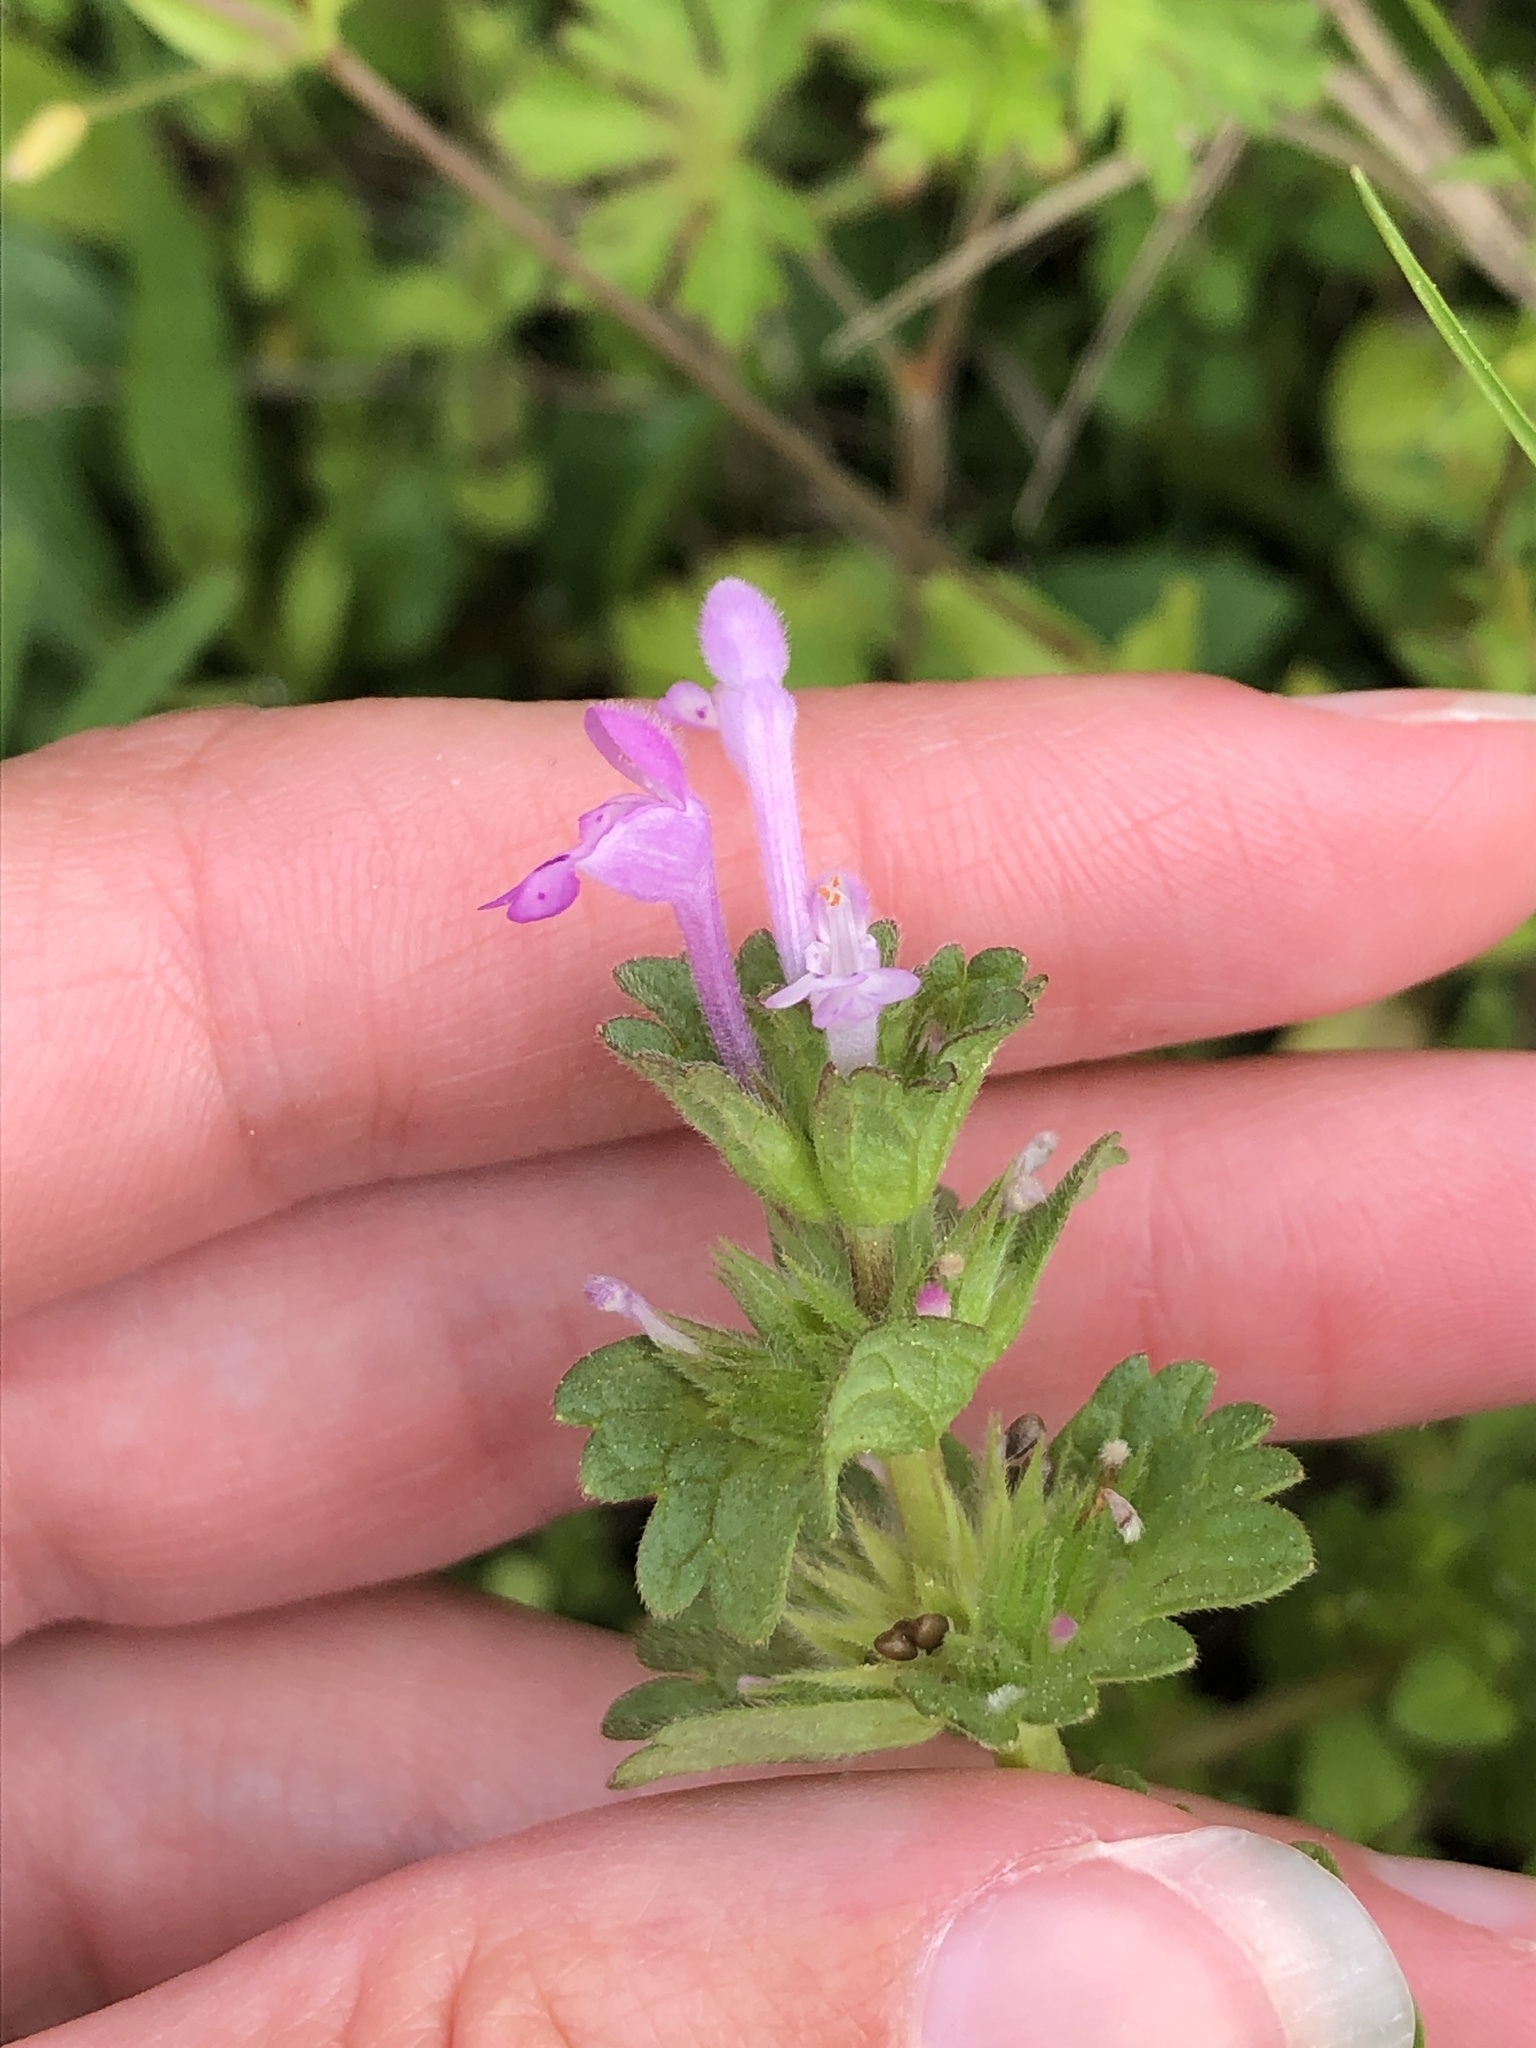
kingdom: Plantae
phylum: Tracheophyta
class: Magnoliopsida
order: Lamiales
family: Lamiaceae
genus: Lamium
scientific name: Lamium amplexicaule
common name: Henbit dead-nettle
